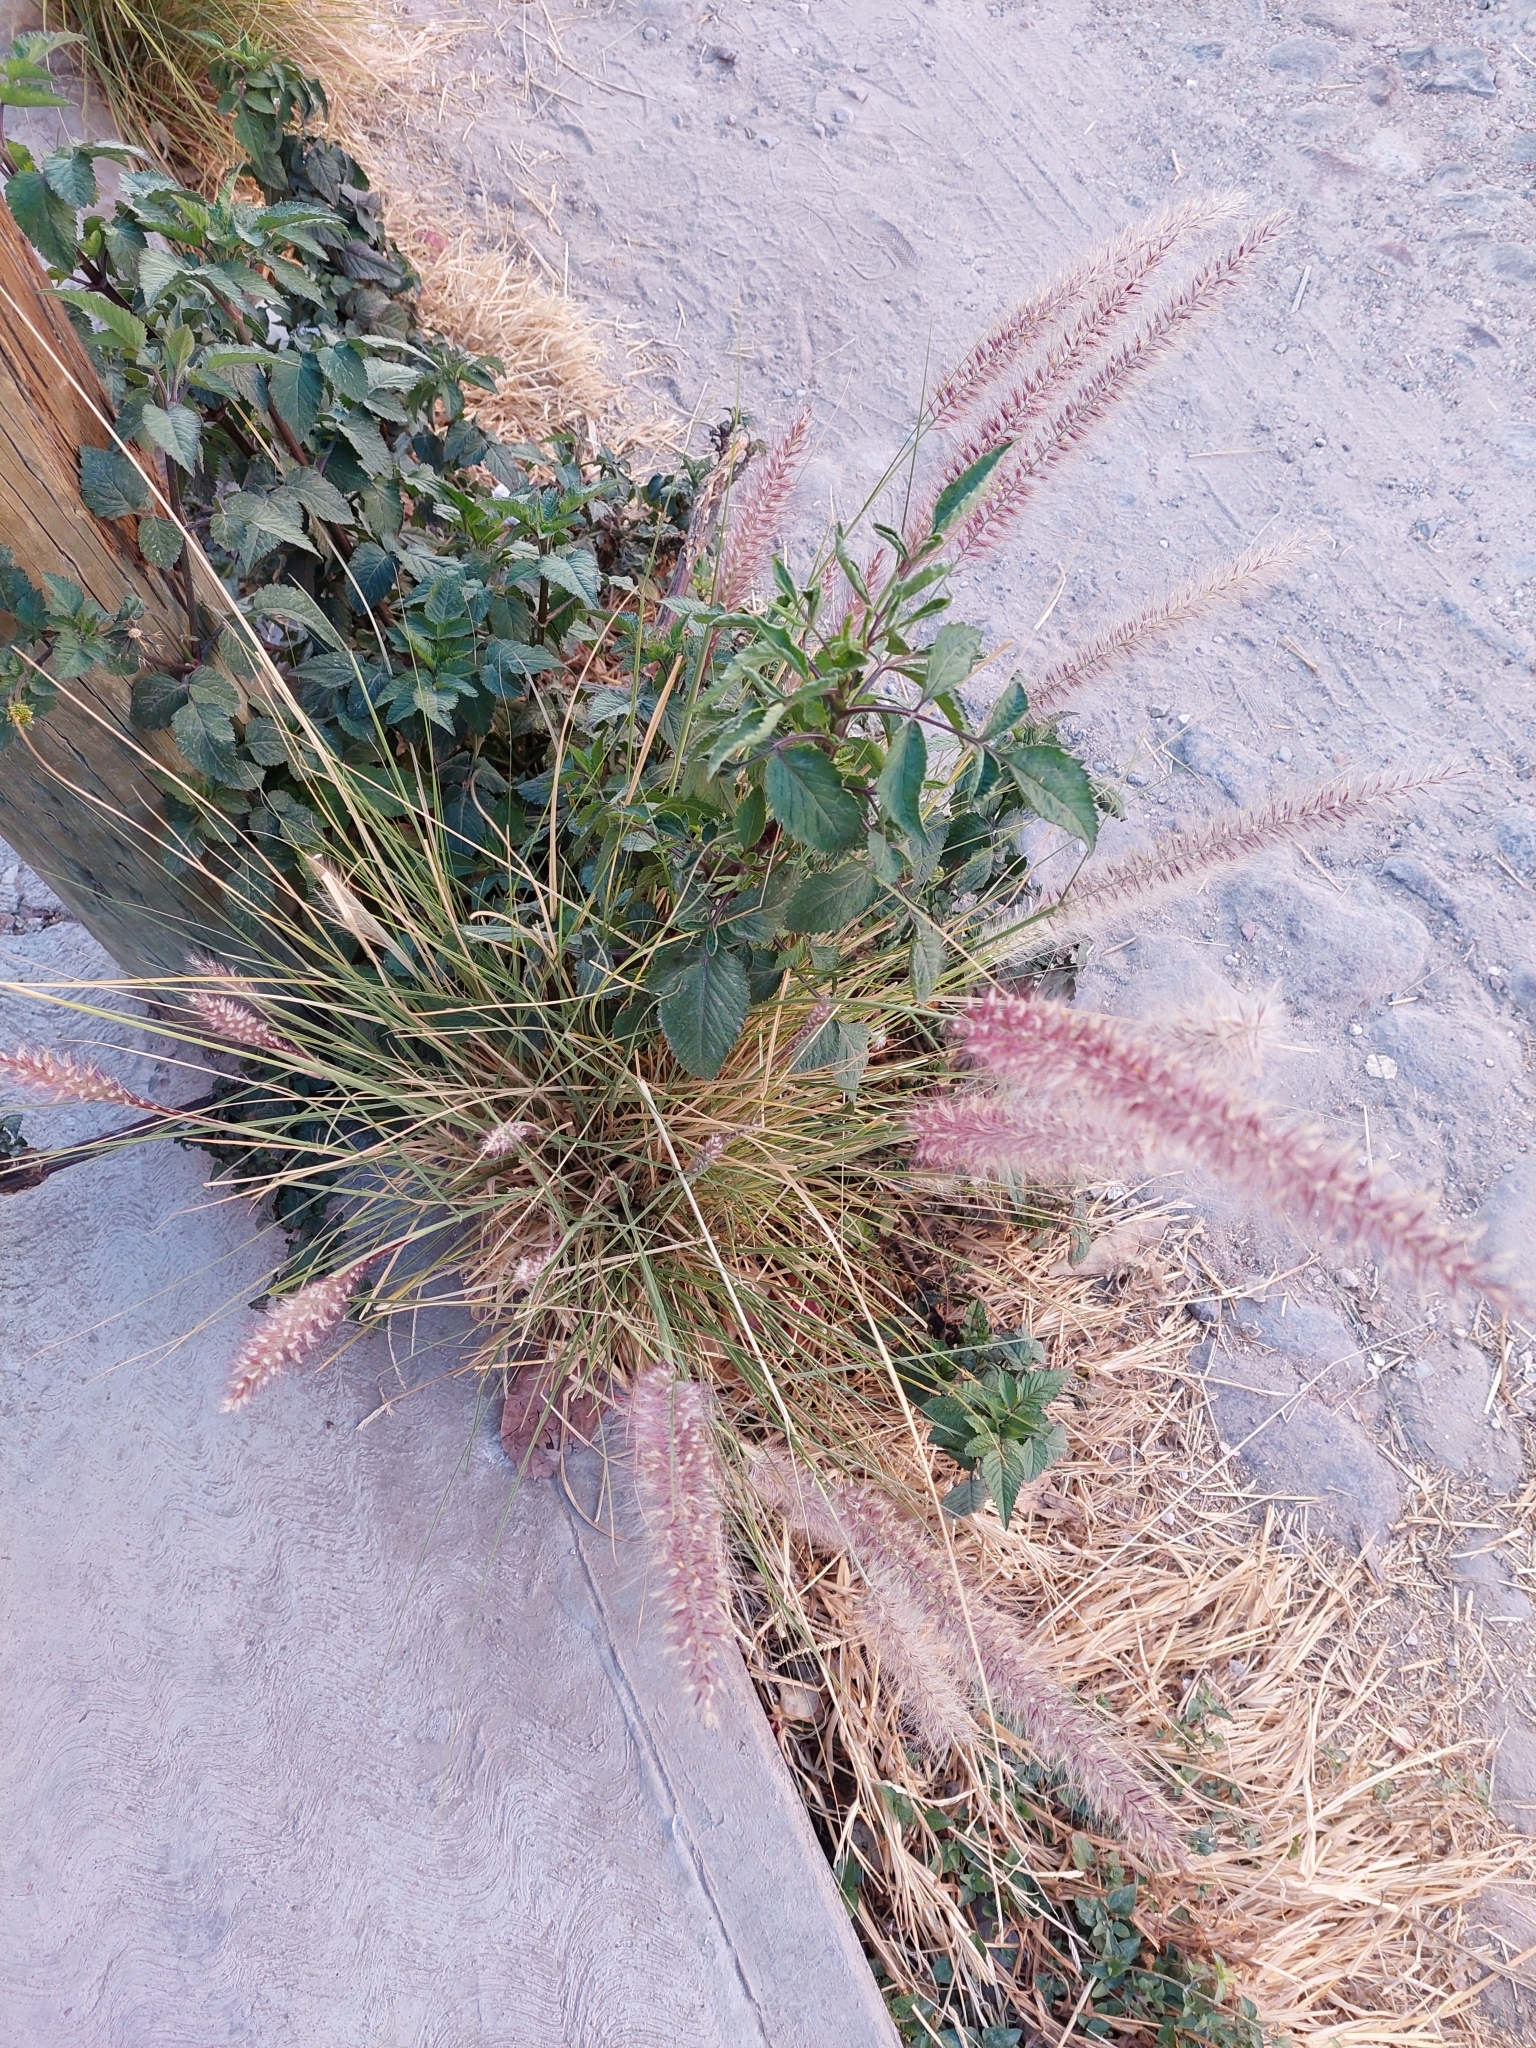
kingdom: Plantae
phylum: Tracheophyta
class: Liliopsida
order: Poales
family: Poaceae
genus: Cenchrus
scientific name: Cenchrus setaceus
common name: Crimson fountaingrass
